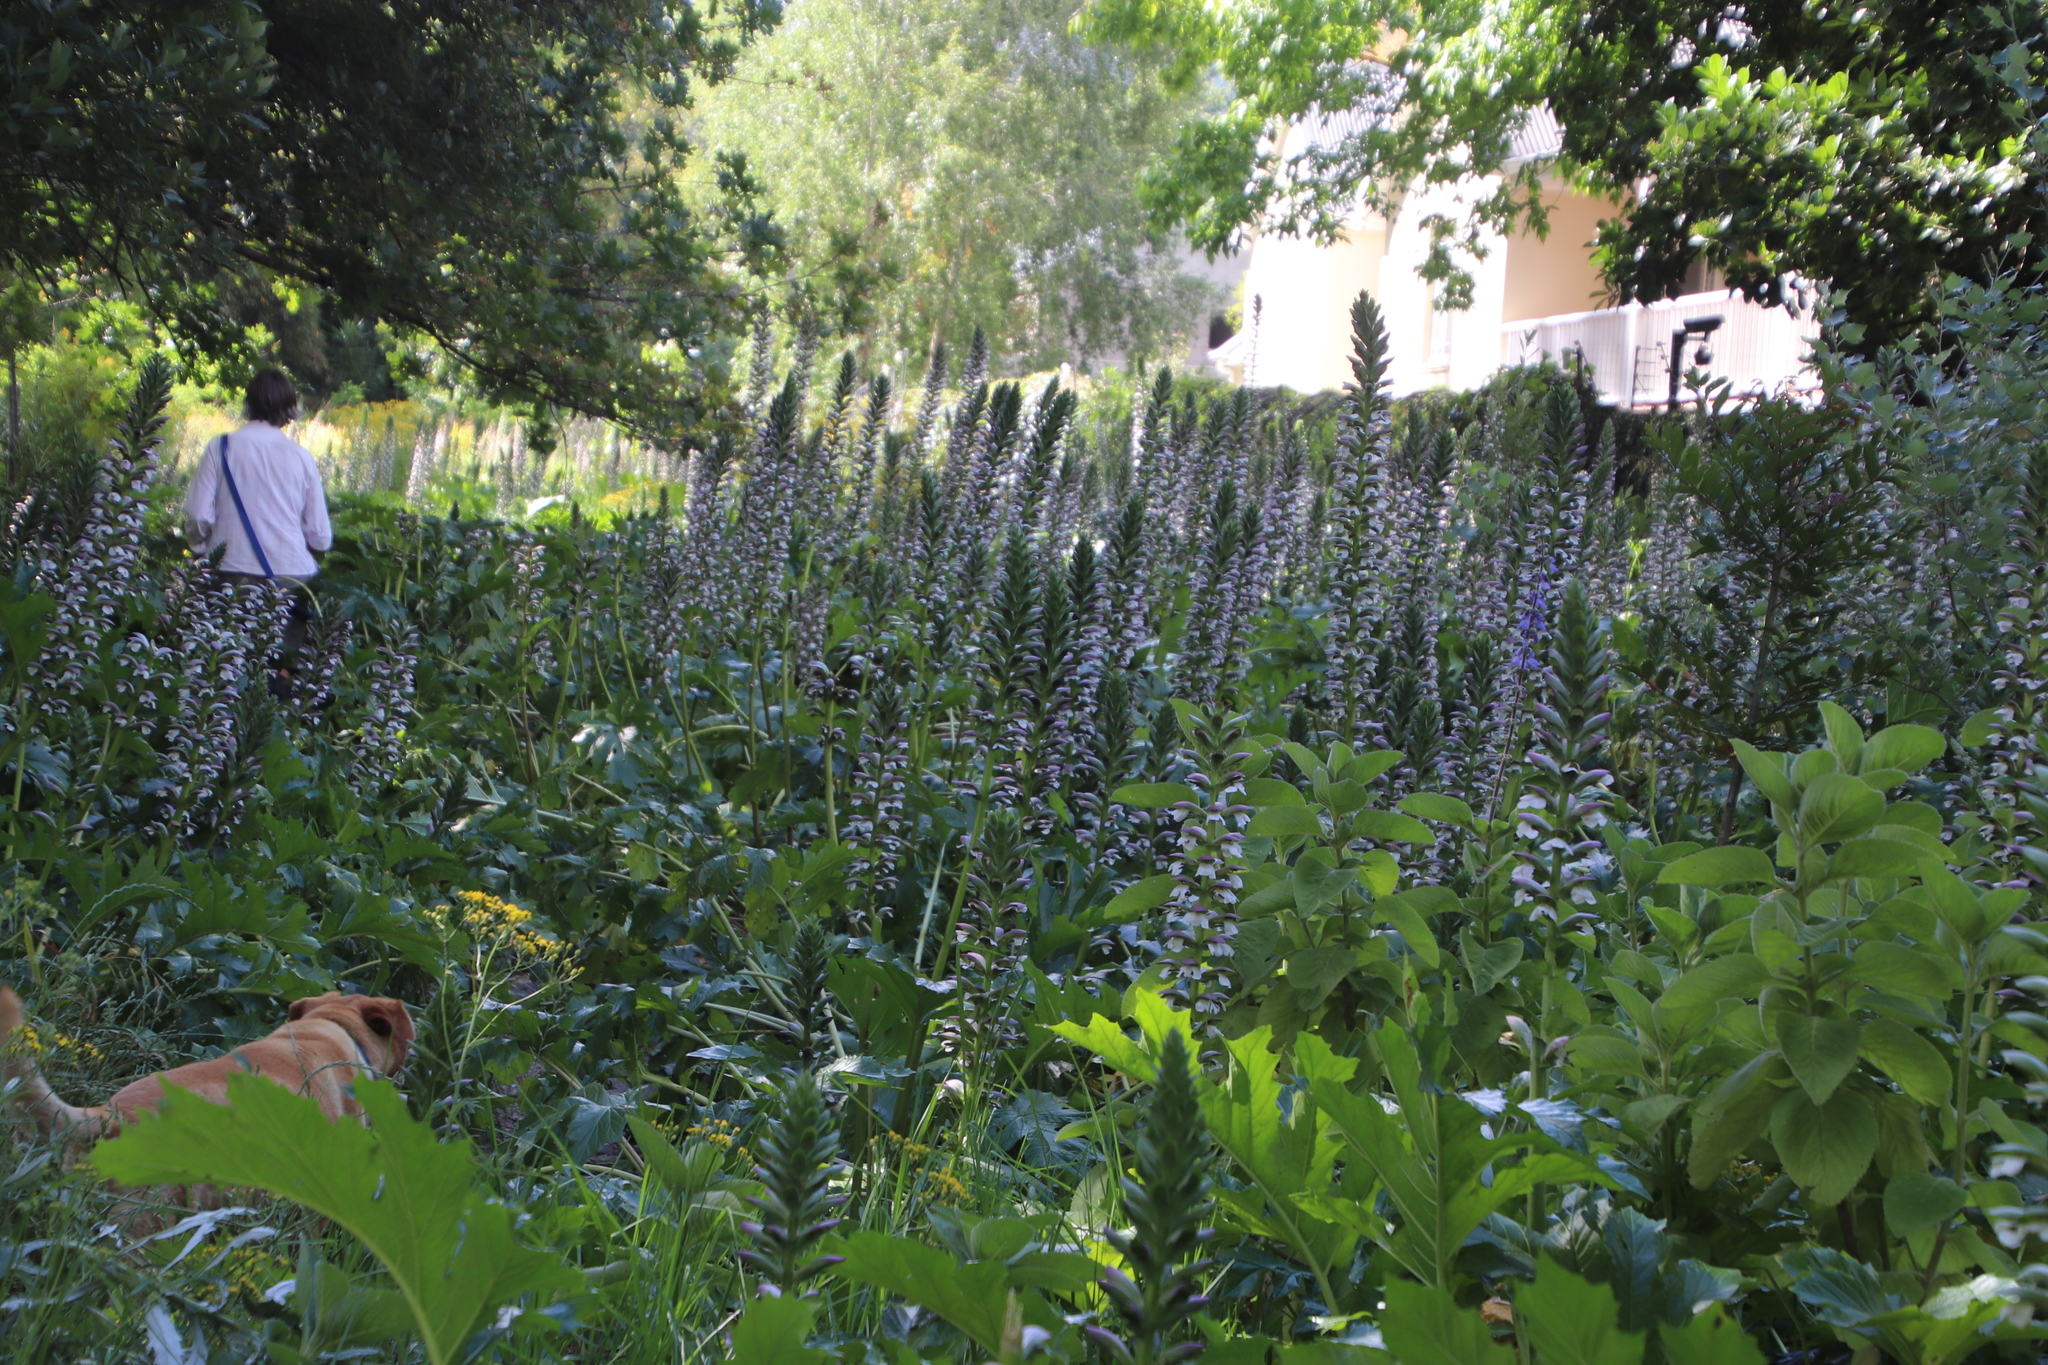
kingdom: Plantae
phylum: Tracheophyta
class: Magnoliopsida
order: Lamiales
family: Acanthaceae
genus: Acanthus
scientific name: Acanthus mollis
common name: Bear's-breech
